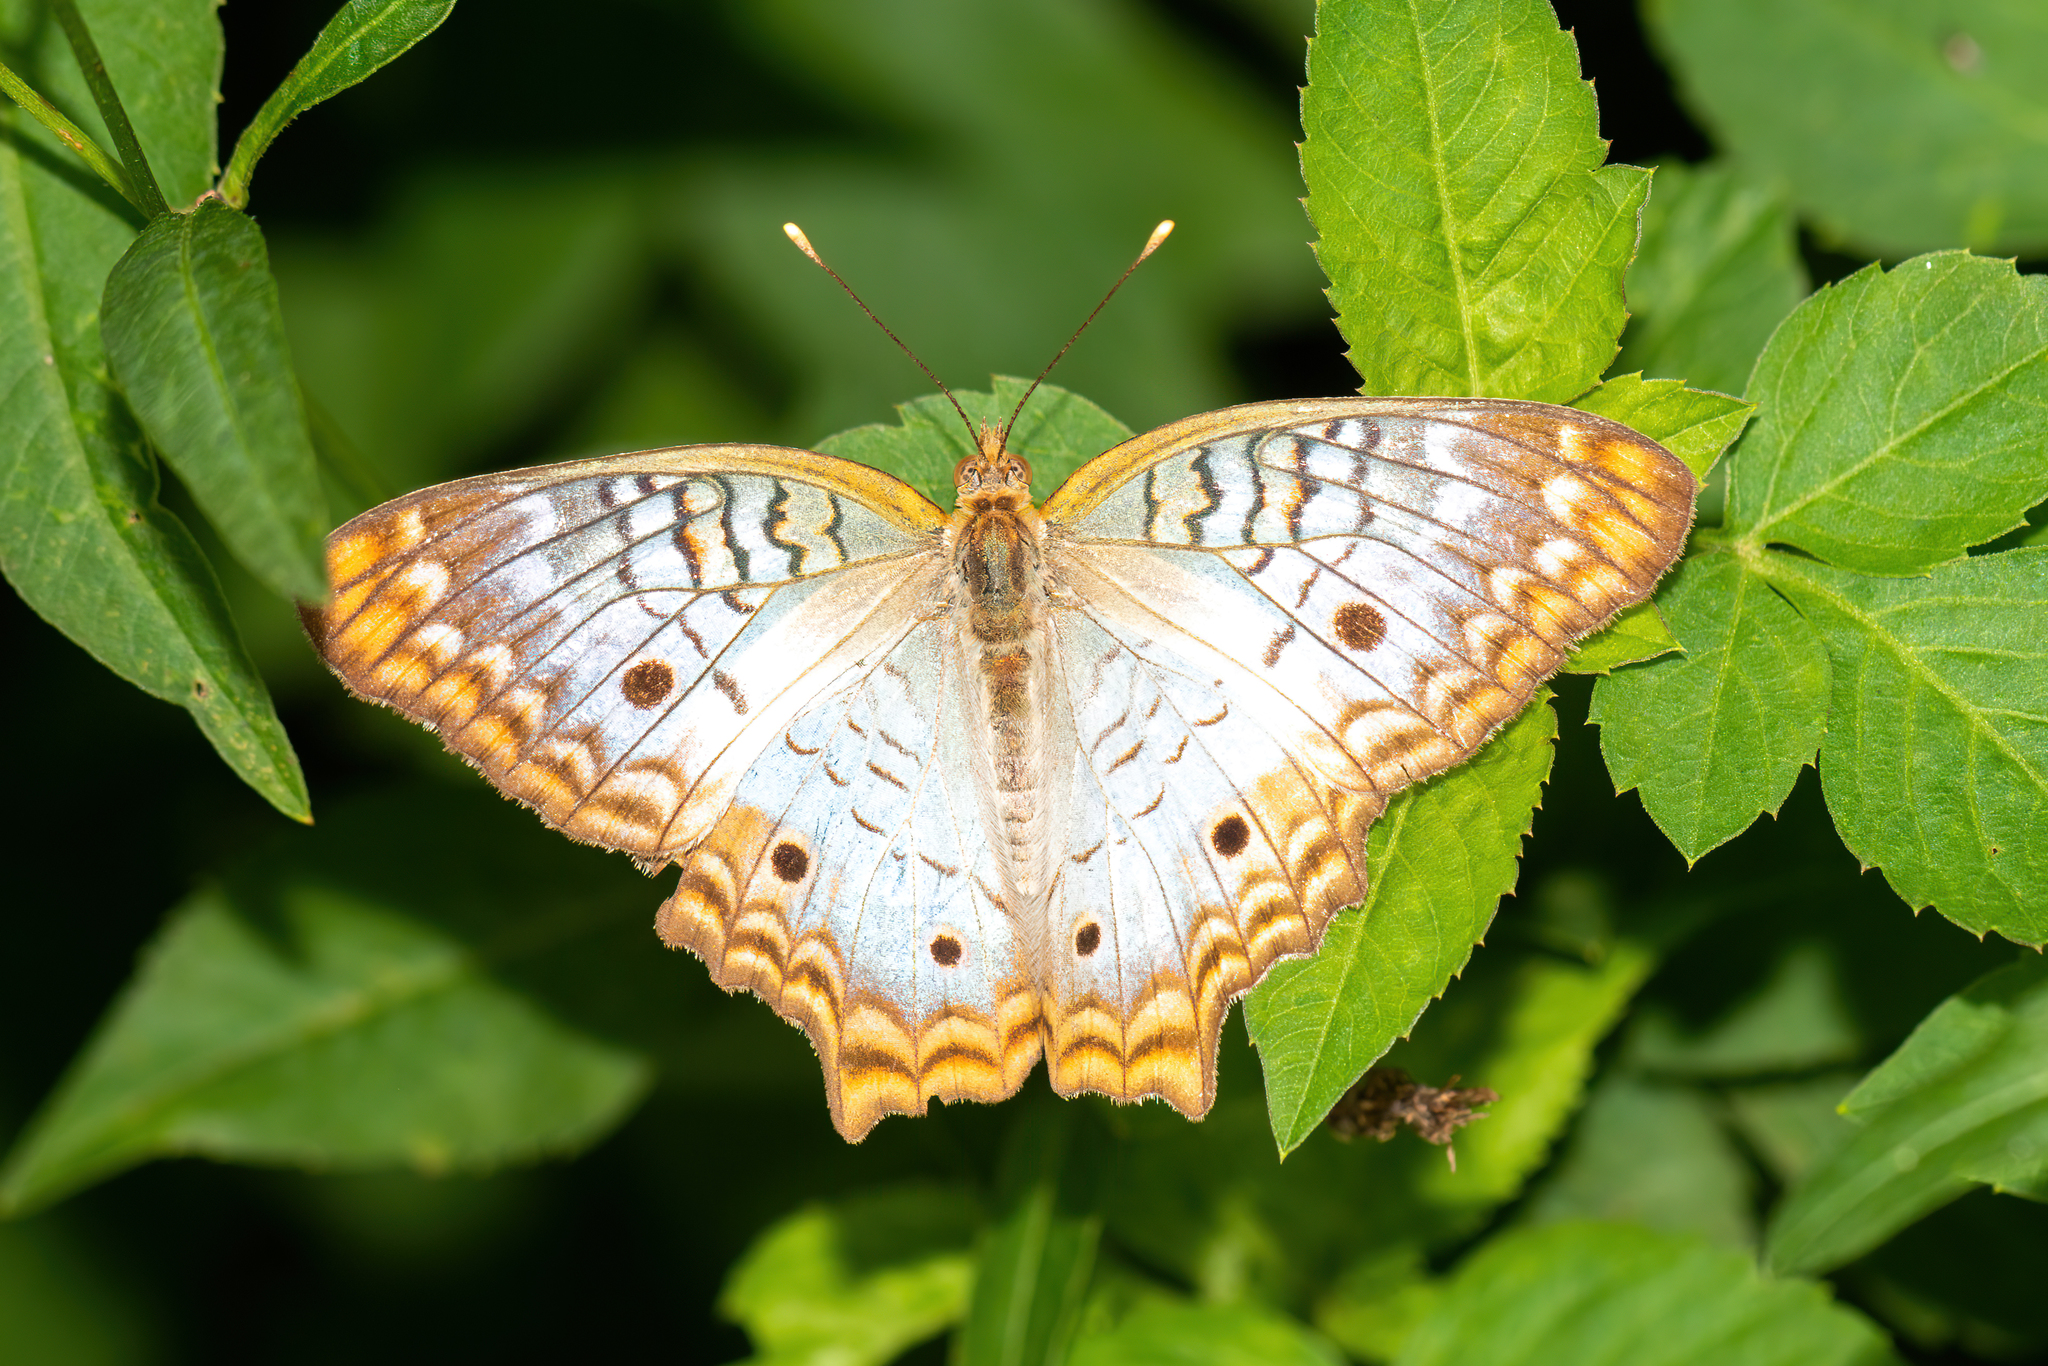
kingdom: Animalia
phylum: Arthropoda
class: Insecta
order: Lepidoptera
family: Nymphalidae
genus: Anartia
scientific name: Anartia jatrophae
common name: White peacock
